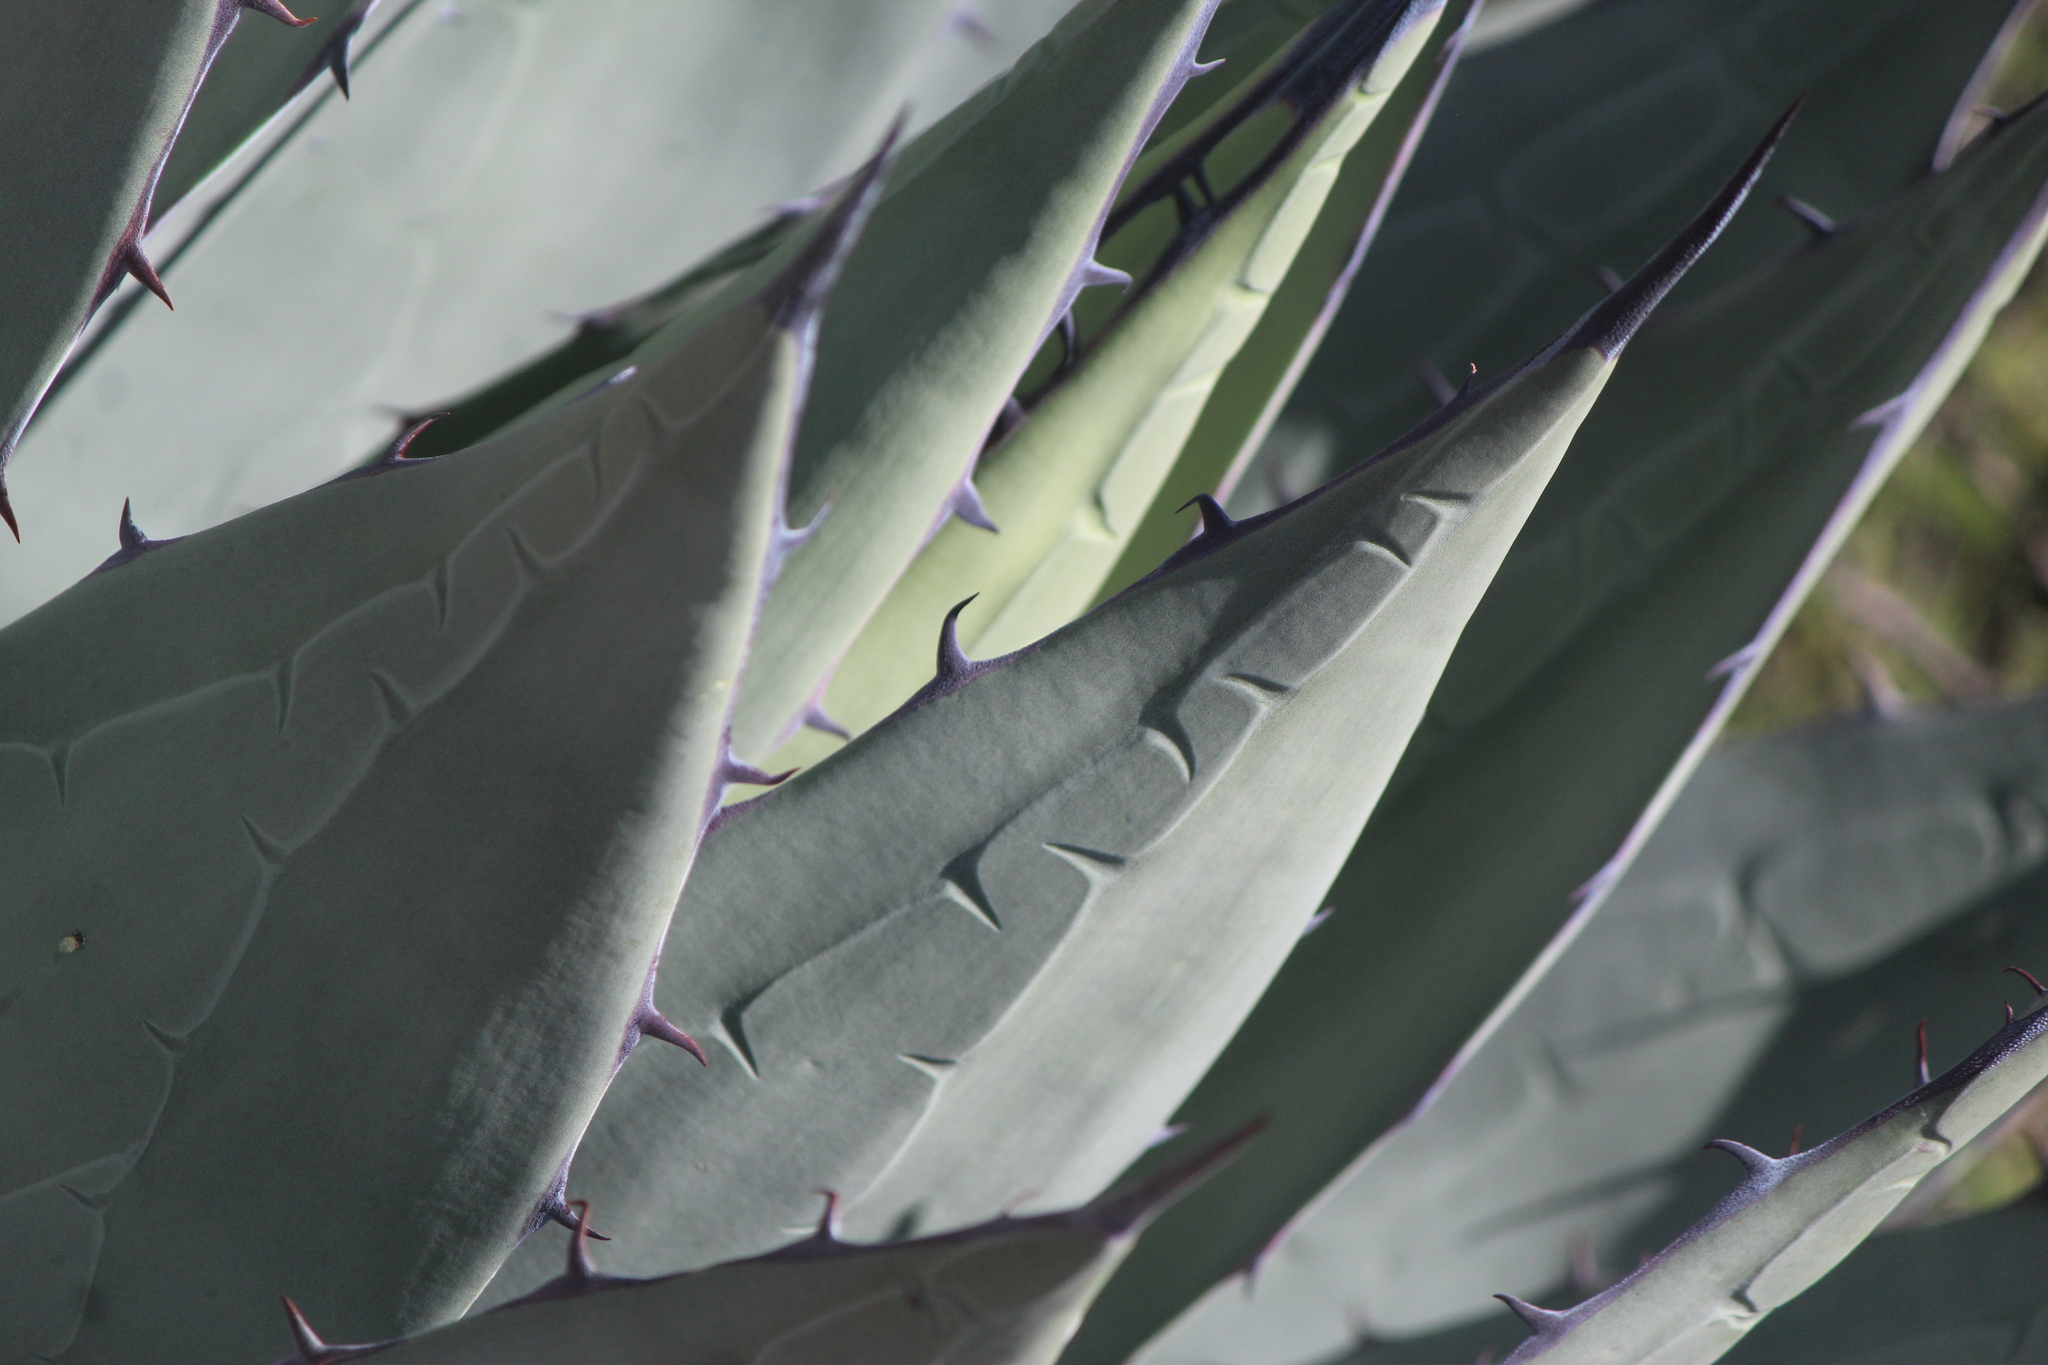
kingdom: Plantae
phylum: Tracheophyta
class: Liliopsida
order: Asparagales
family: Asparagaceae
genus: Agave
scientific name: Agave applanata
